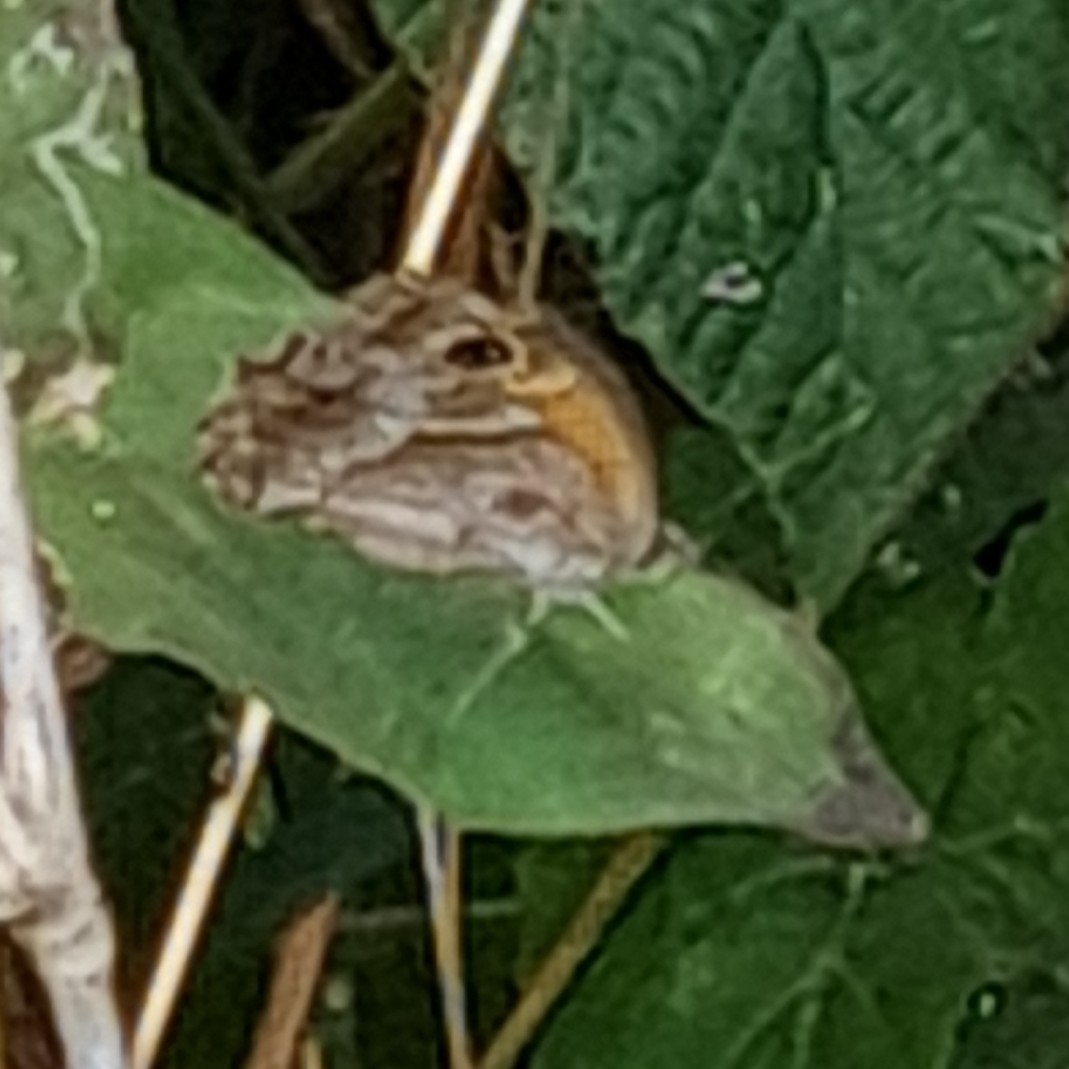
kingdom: Animalia
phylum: Arthropoda
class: Insecta
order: Lepidoptera
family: Nymphalidae
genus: Pyronia
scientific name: Pyronia cecilia
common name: Southern gatekeeper
